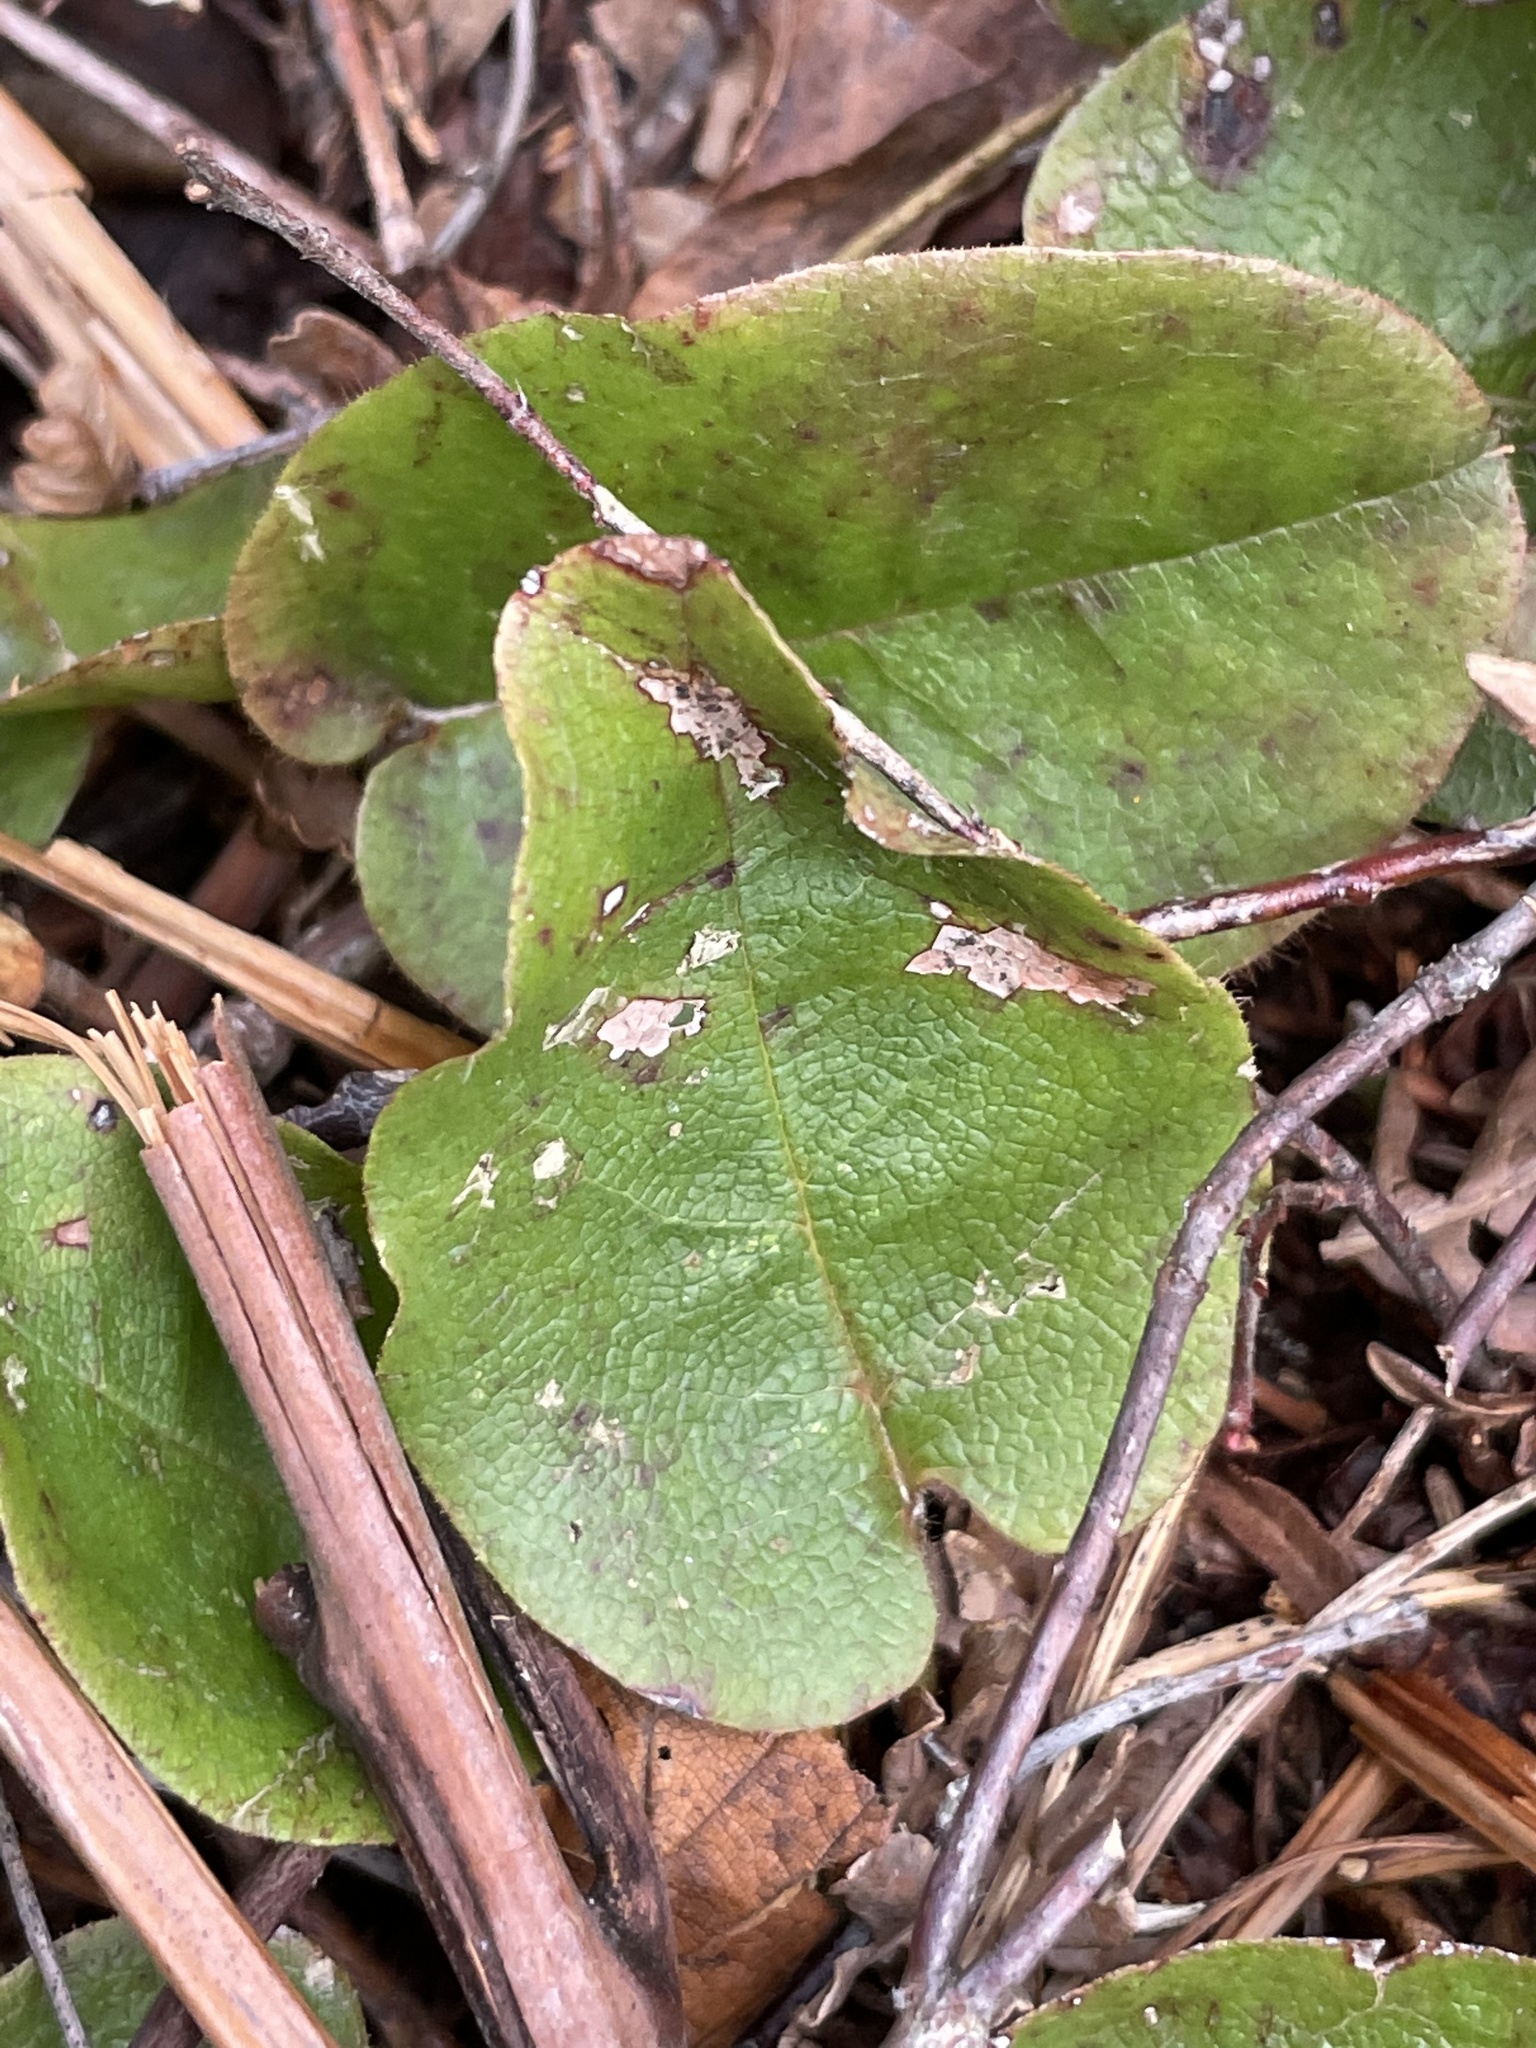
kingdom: Plantae
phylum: Tracheophyta
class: Magnoliopsida
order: Ericales
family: Ericaceae
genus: Epigaea
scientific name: Epigaea repens
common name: Gravelroot
